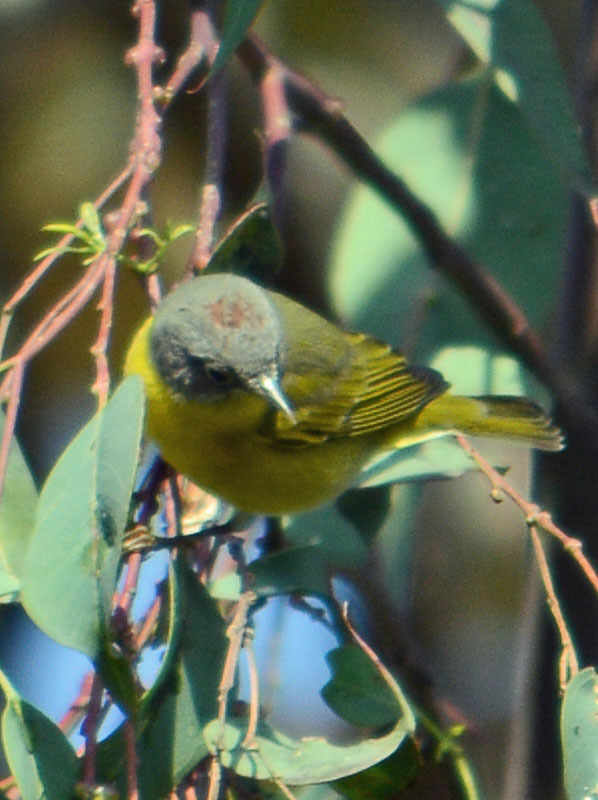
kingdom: Animalia
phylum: Chordata
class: Aves
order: Passeriformes
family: Parulidae
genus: Leiothlypis
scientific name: Leiothlypis ruficapilla
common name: Nashville warbler
